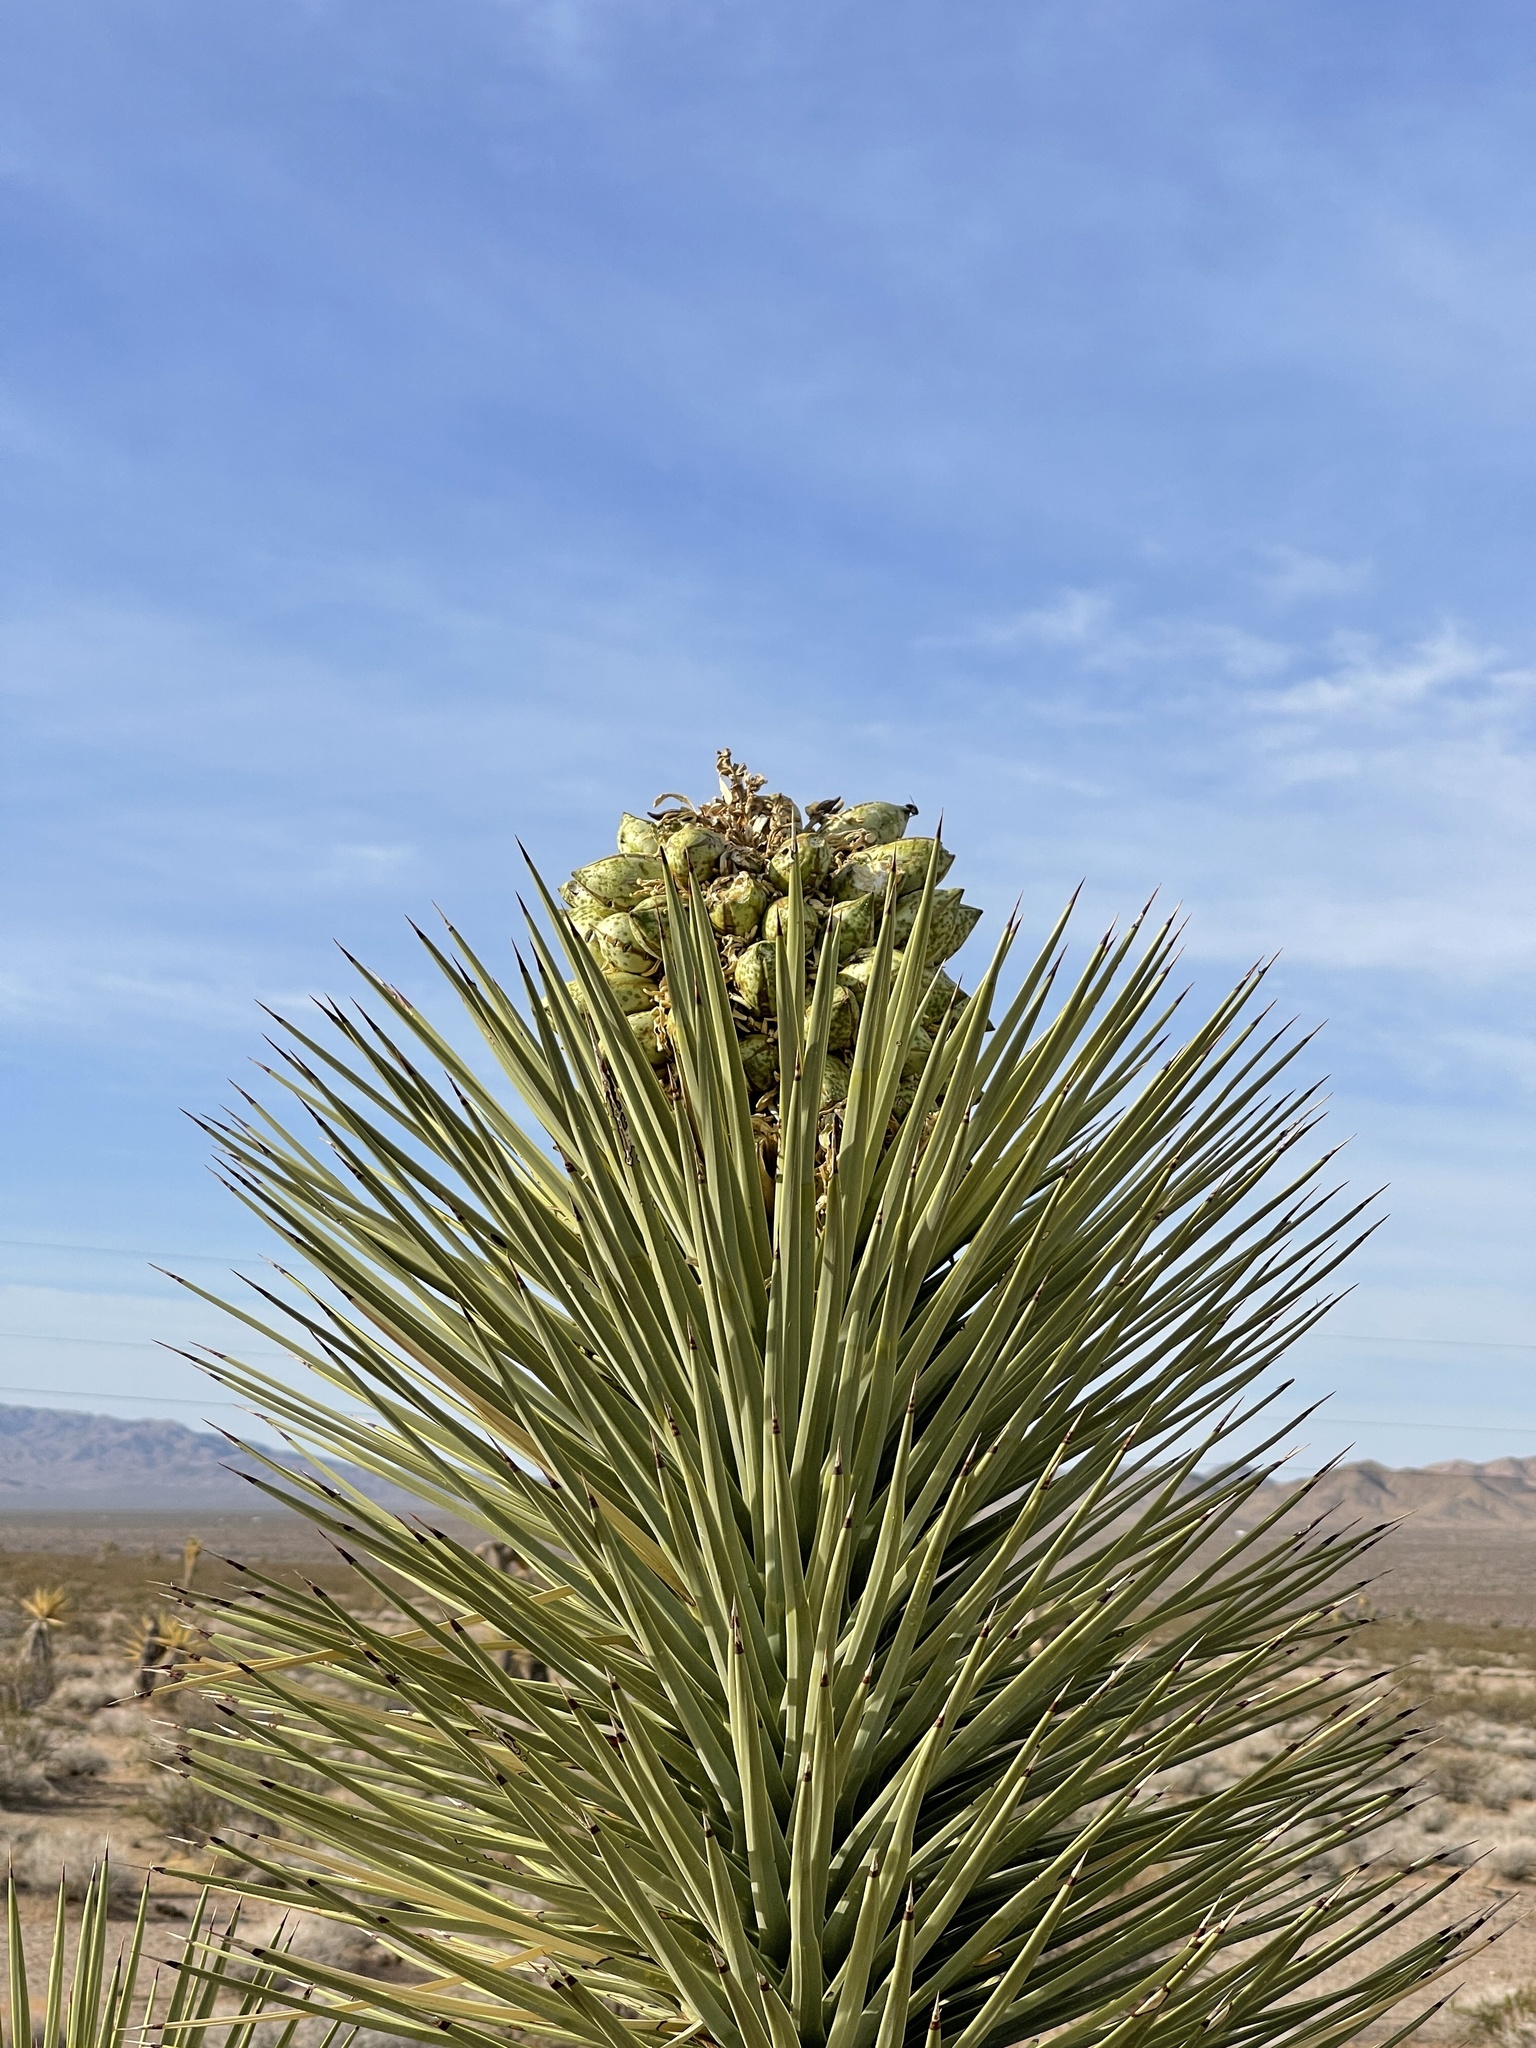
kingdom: Plantae
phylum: Tracheophyta
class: Liliopsida
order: Asparagales
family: Asparagaceae
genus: Yucca
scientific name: Yucca brevifolia
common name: Joshua tree
